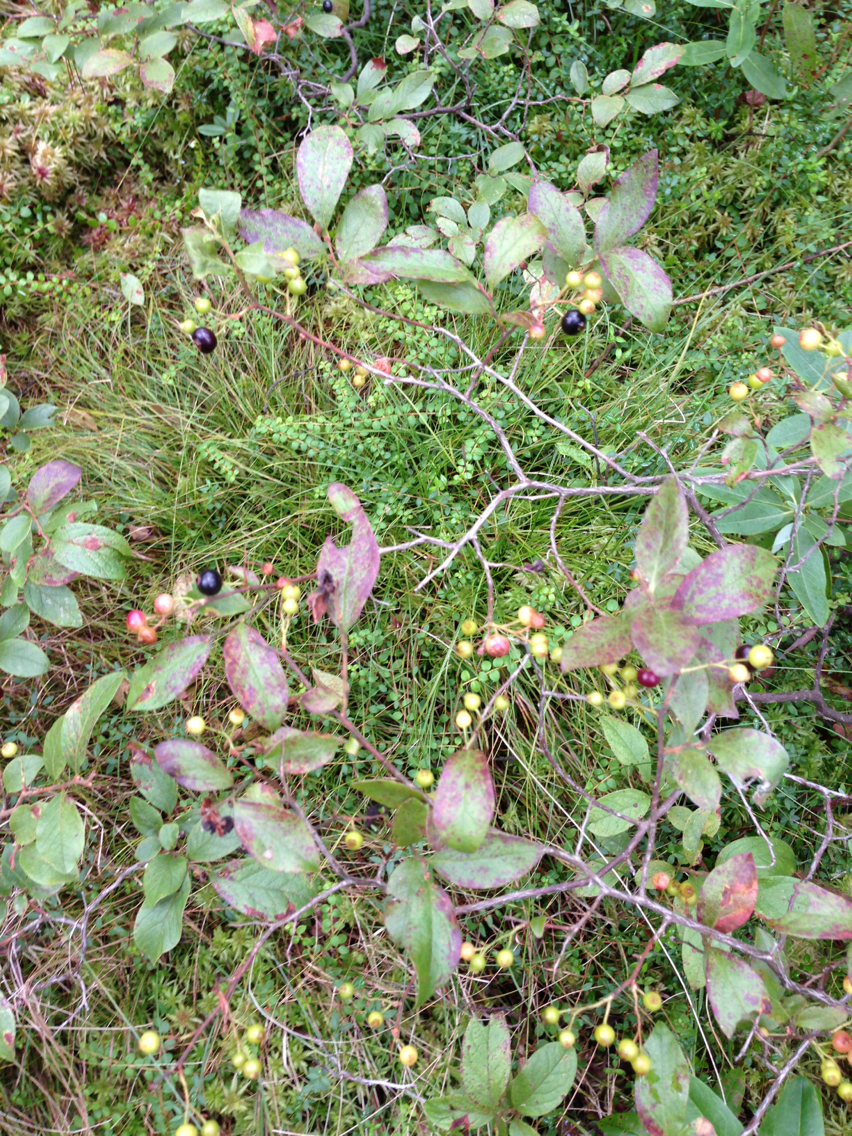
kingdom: Plantae
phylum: Tracheophyta
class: Magnoliopsida
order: Ericales
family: Ericaceae
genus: Gaylussacia
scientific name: Gaylussacia baccata
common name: Black huckleberry
